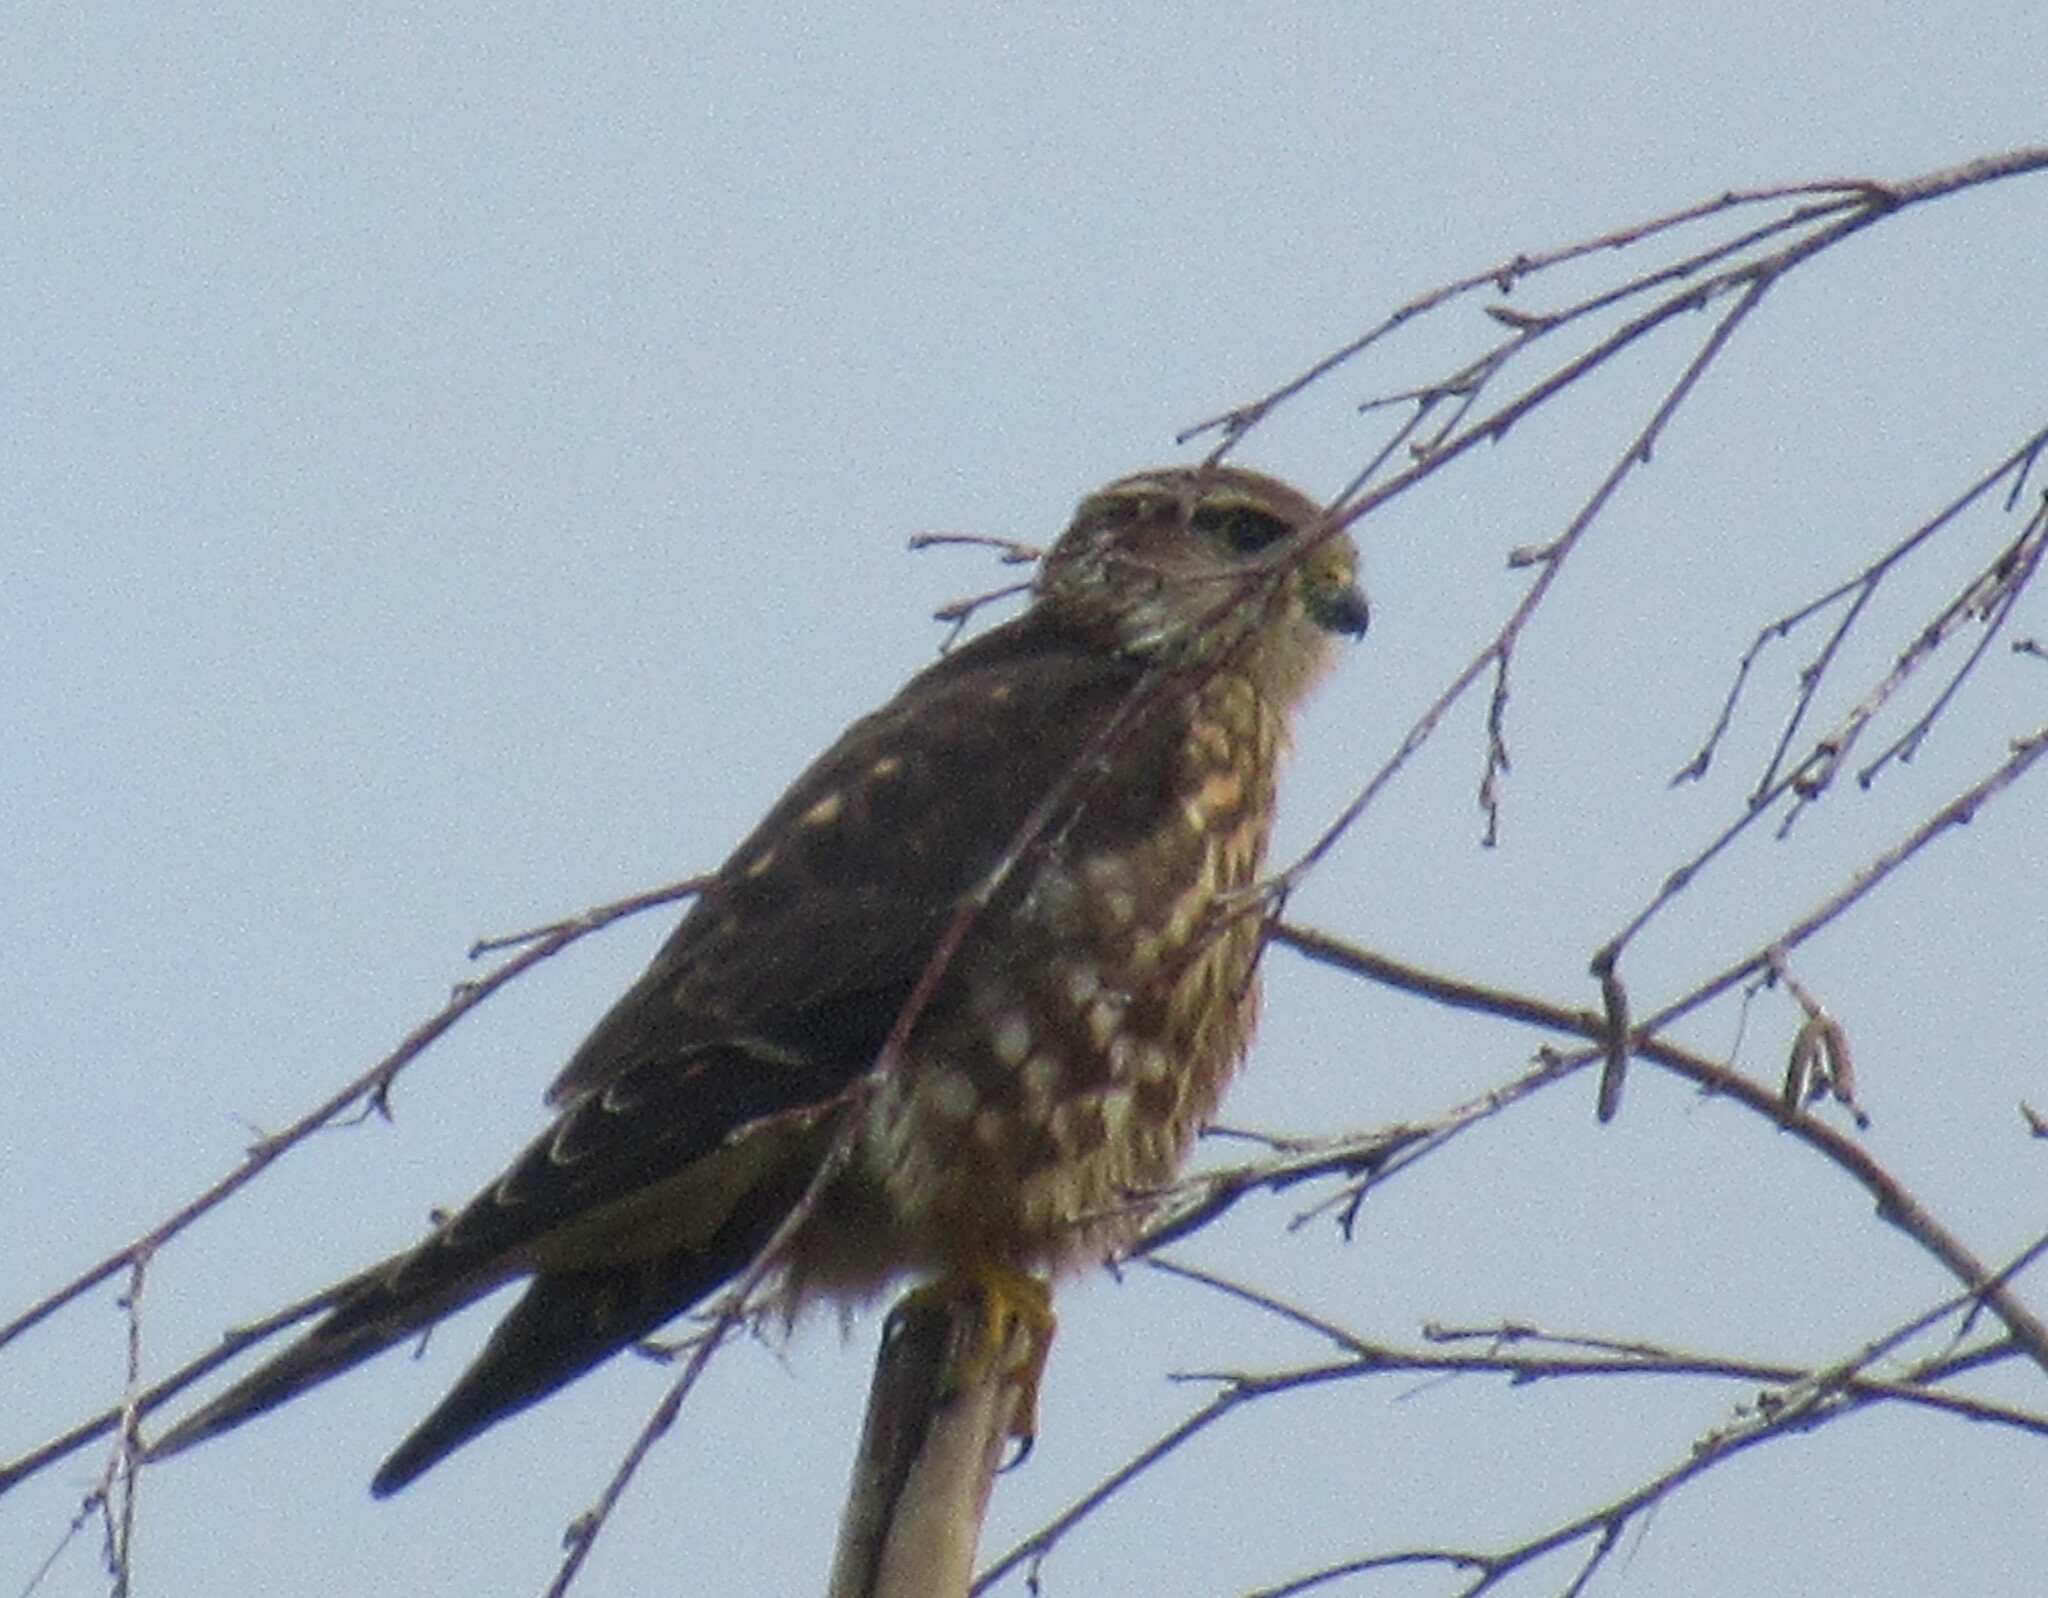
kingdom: Animalia
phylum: Chordata
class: Aves
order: Falconiformes
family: Falconidae
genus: Falco
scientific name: Falco columbarius
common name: Merlin
